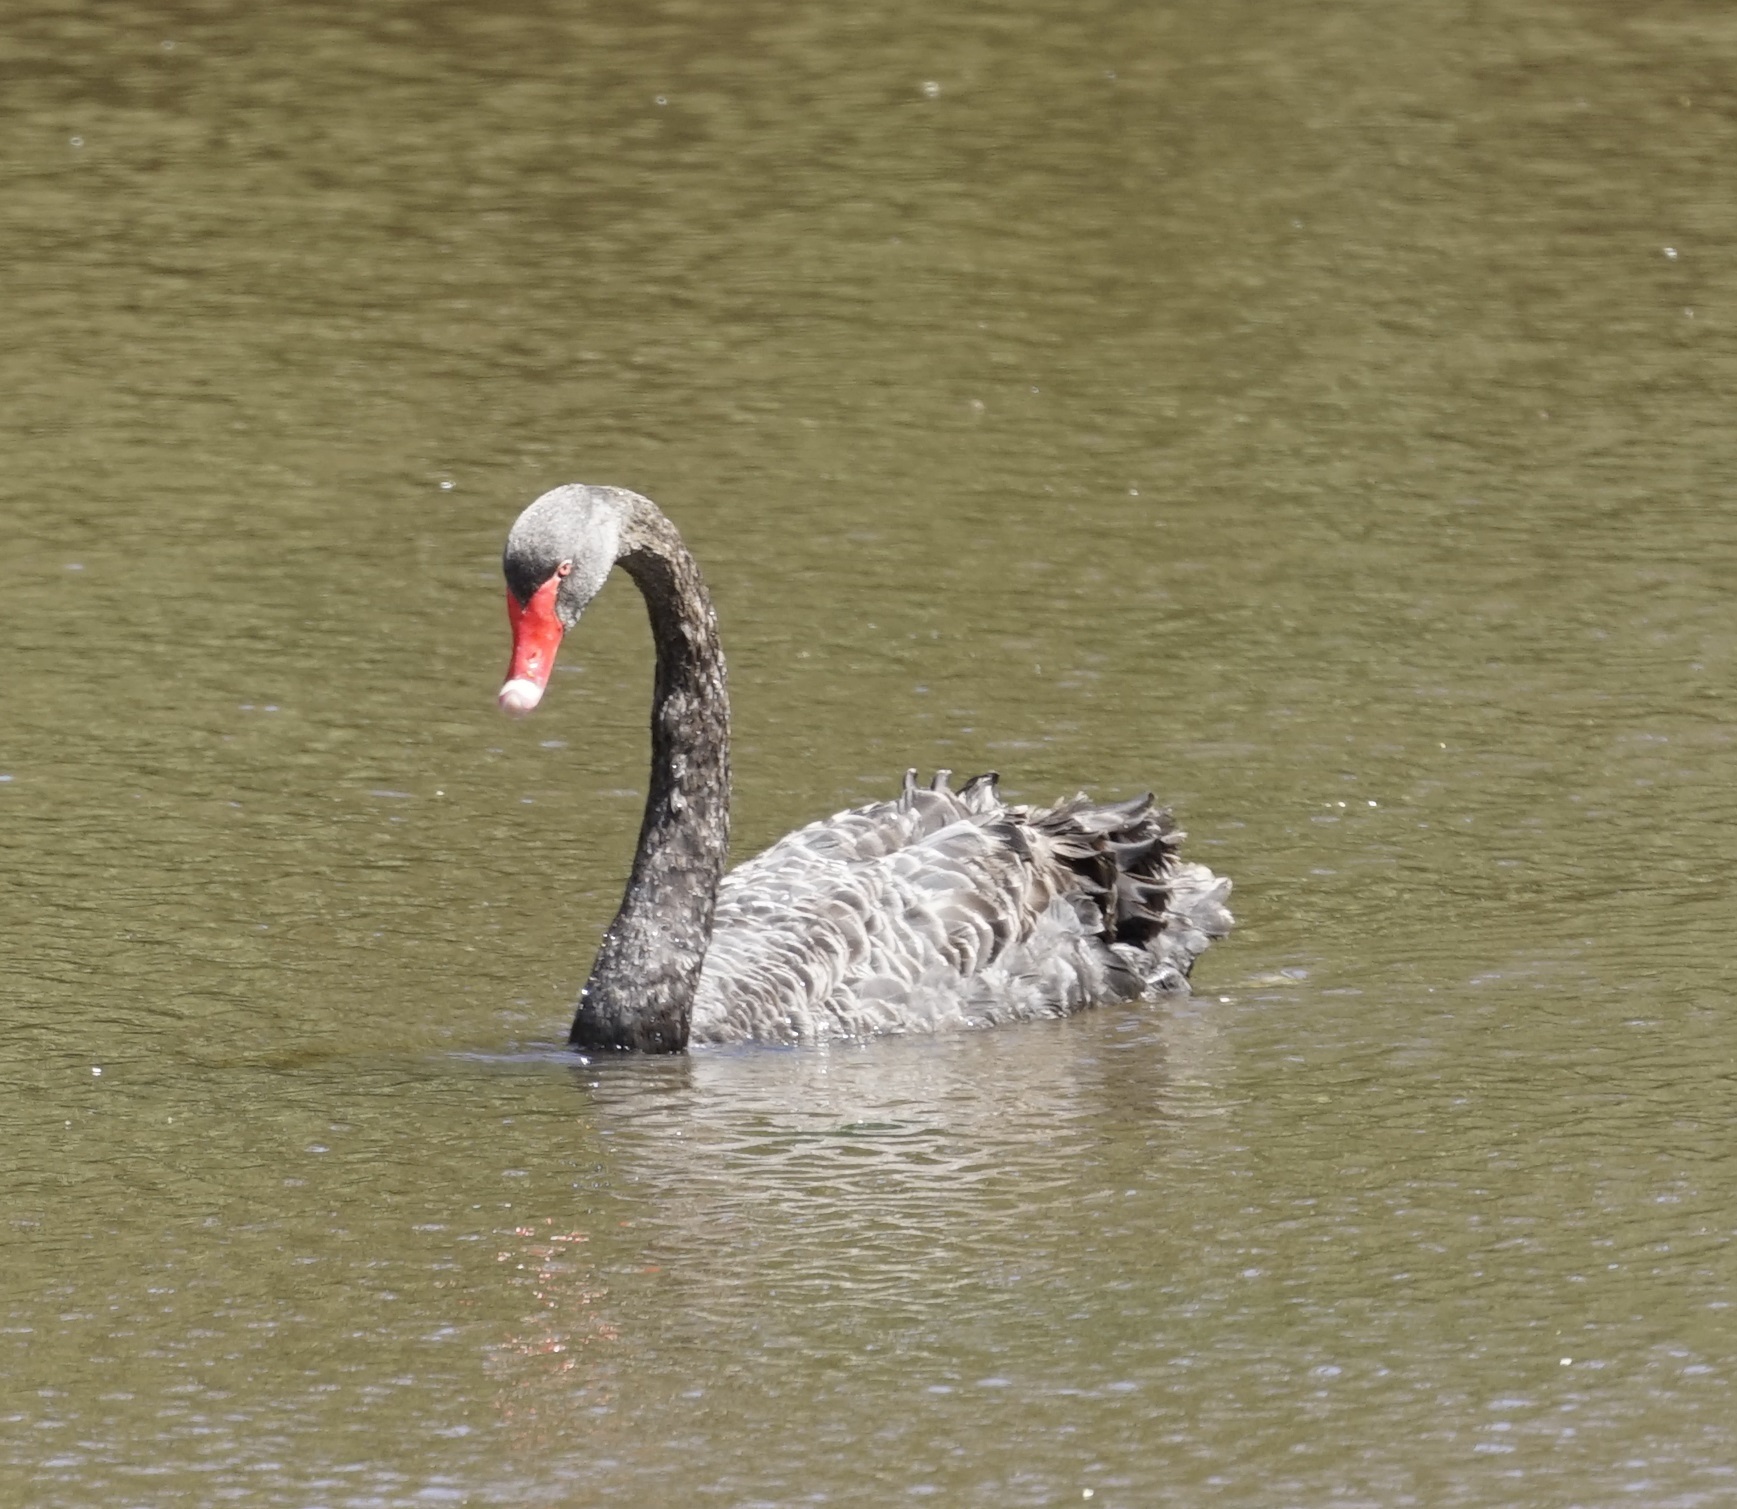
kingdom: Animalia
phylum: Chordata
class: Aves
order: Anseriformes
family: Anatidae
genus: Cygnus
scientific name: Cygnus atratus
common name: Black swan
